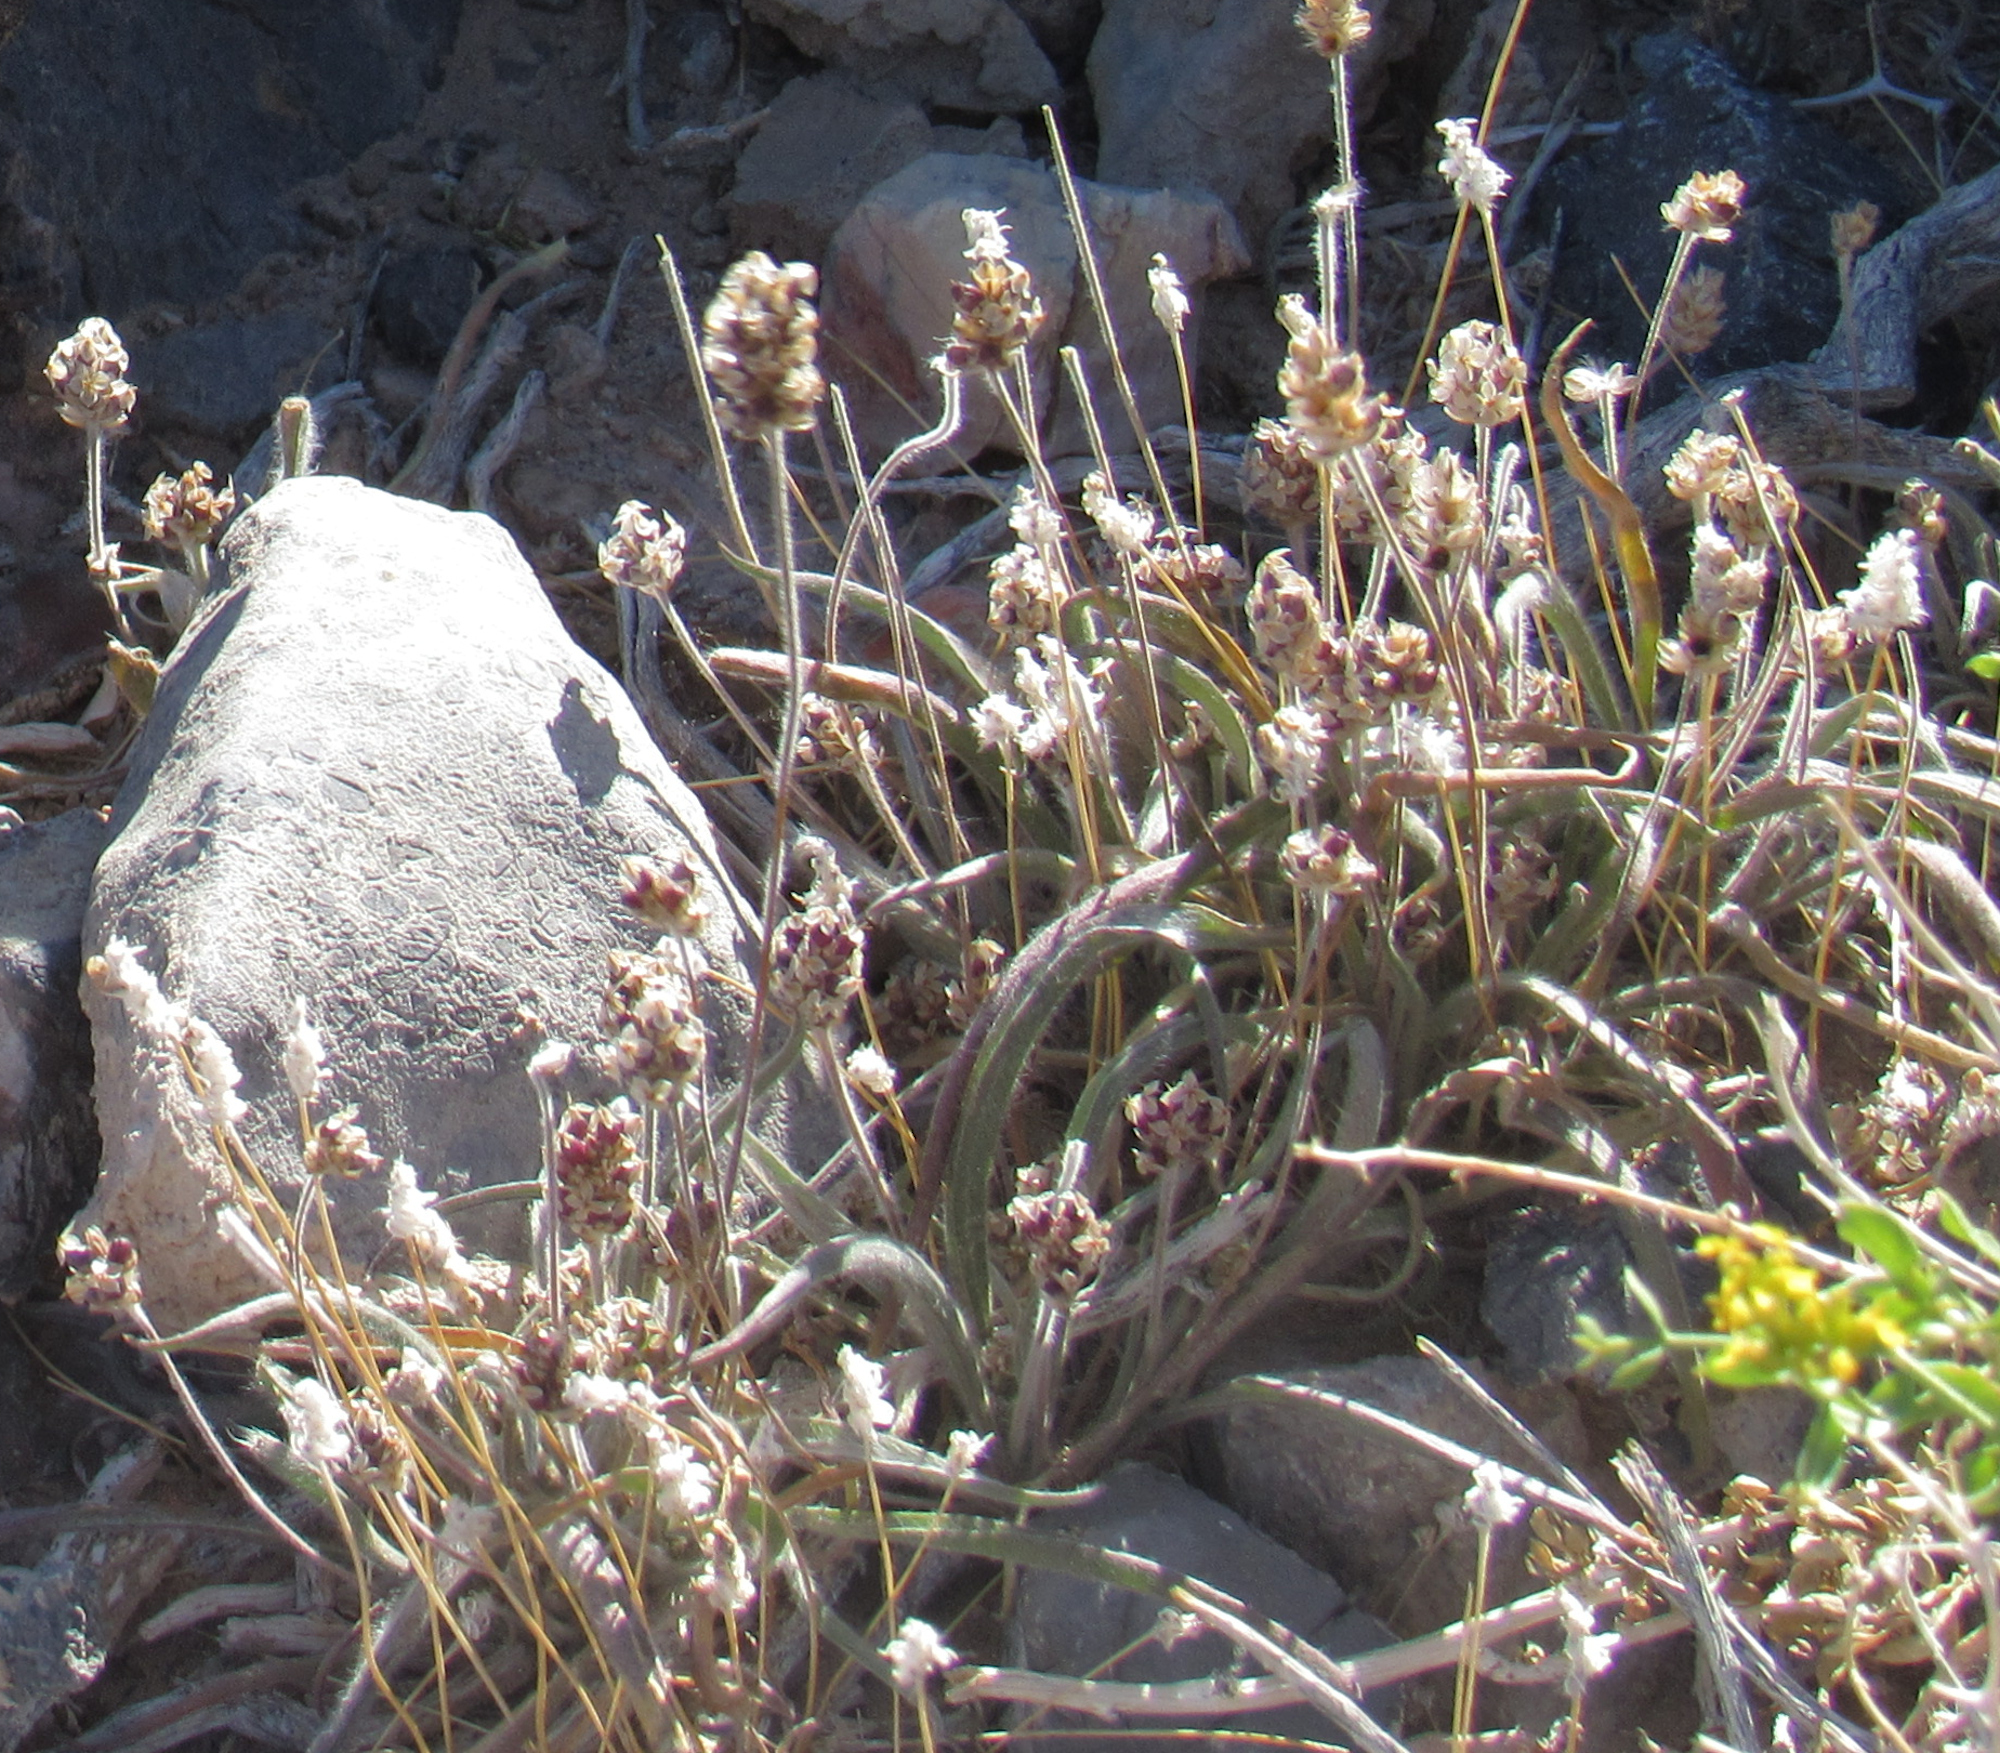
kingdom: Plantae
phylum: Tracheophyta
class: Magnoliopsida
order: Lamiales
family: Plantaginaceae
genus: Plantago
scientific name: Plantago ovata
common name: Blond plantain
